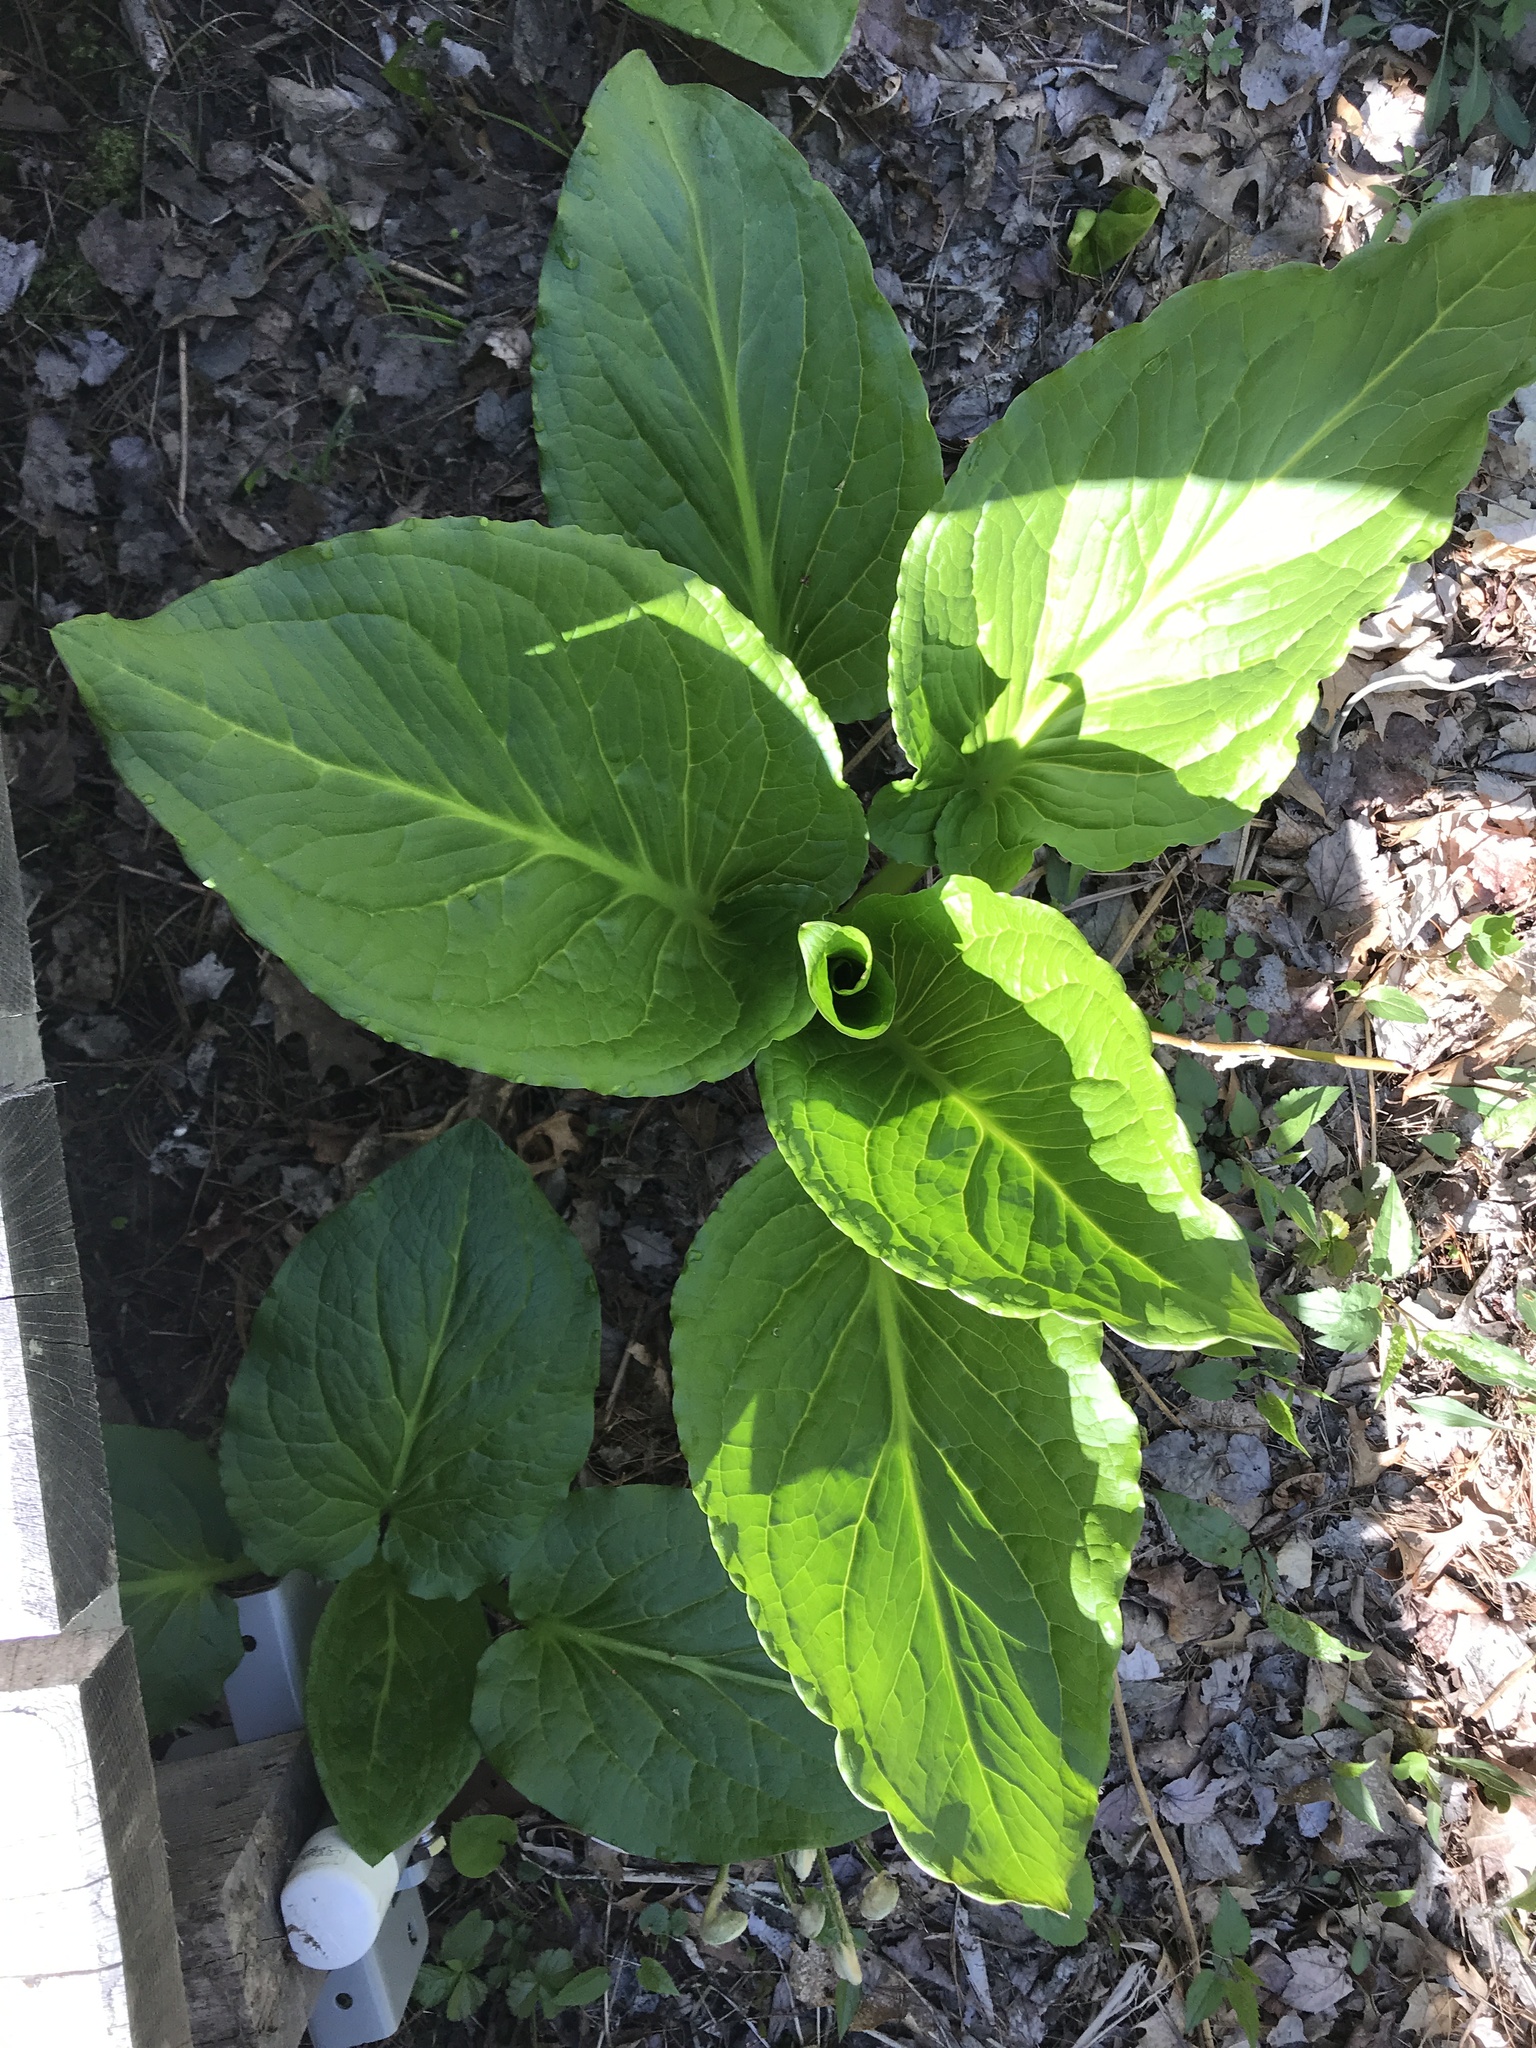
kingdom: Plantae
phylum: Tracheophyta
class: Liliopsida
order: Alismatales
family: Araceae
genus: Symplocarpus
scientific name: Symplocarpus foetidus
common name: Eastern skunk cabbage
